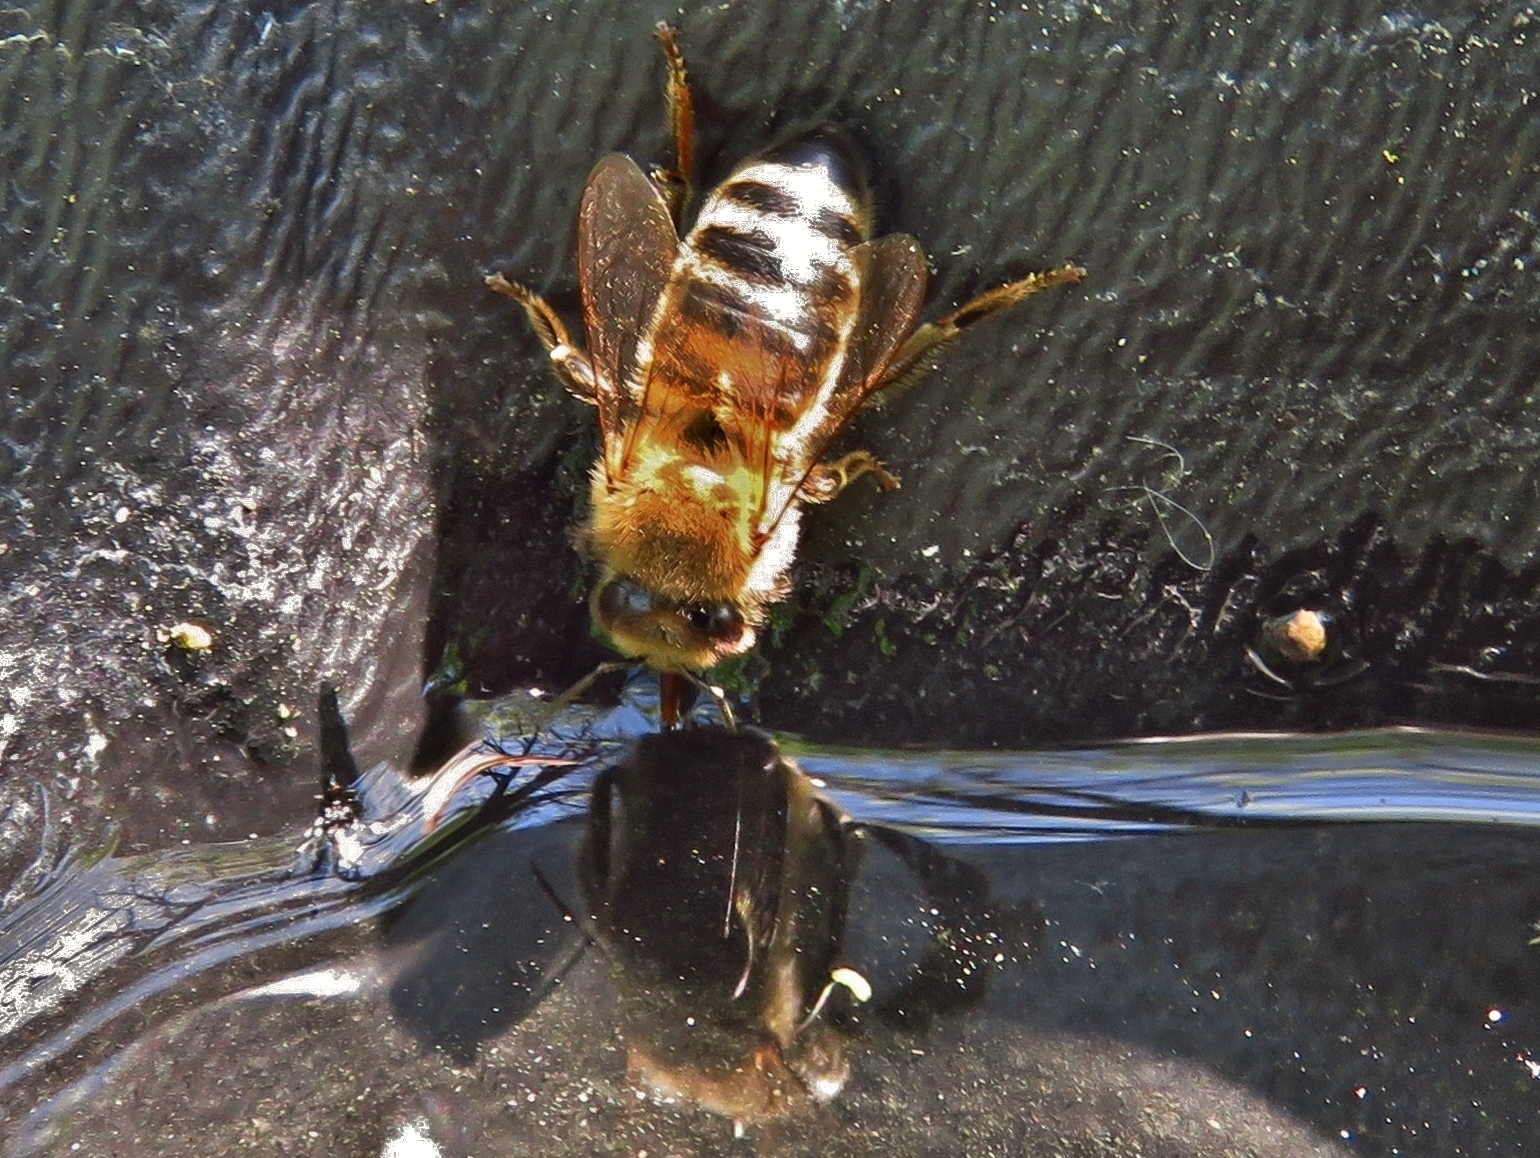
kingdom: Animalia
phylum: Arthropoda
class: Insecta
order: Hymenoptera
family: Apidae
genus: Apis
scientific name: Apis mellifera
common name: Honey bee
